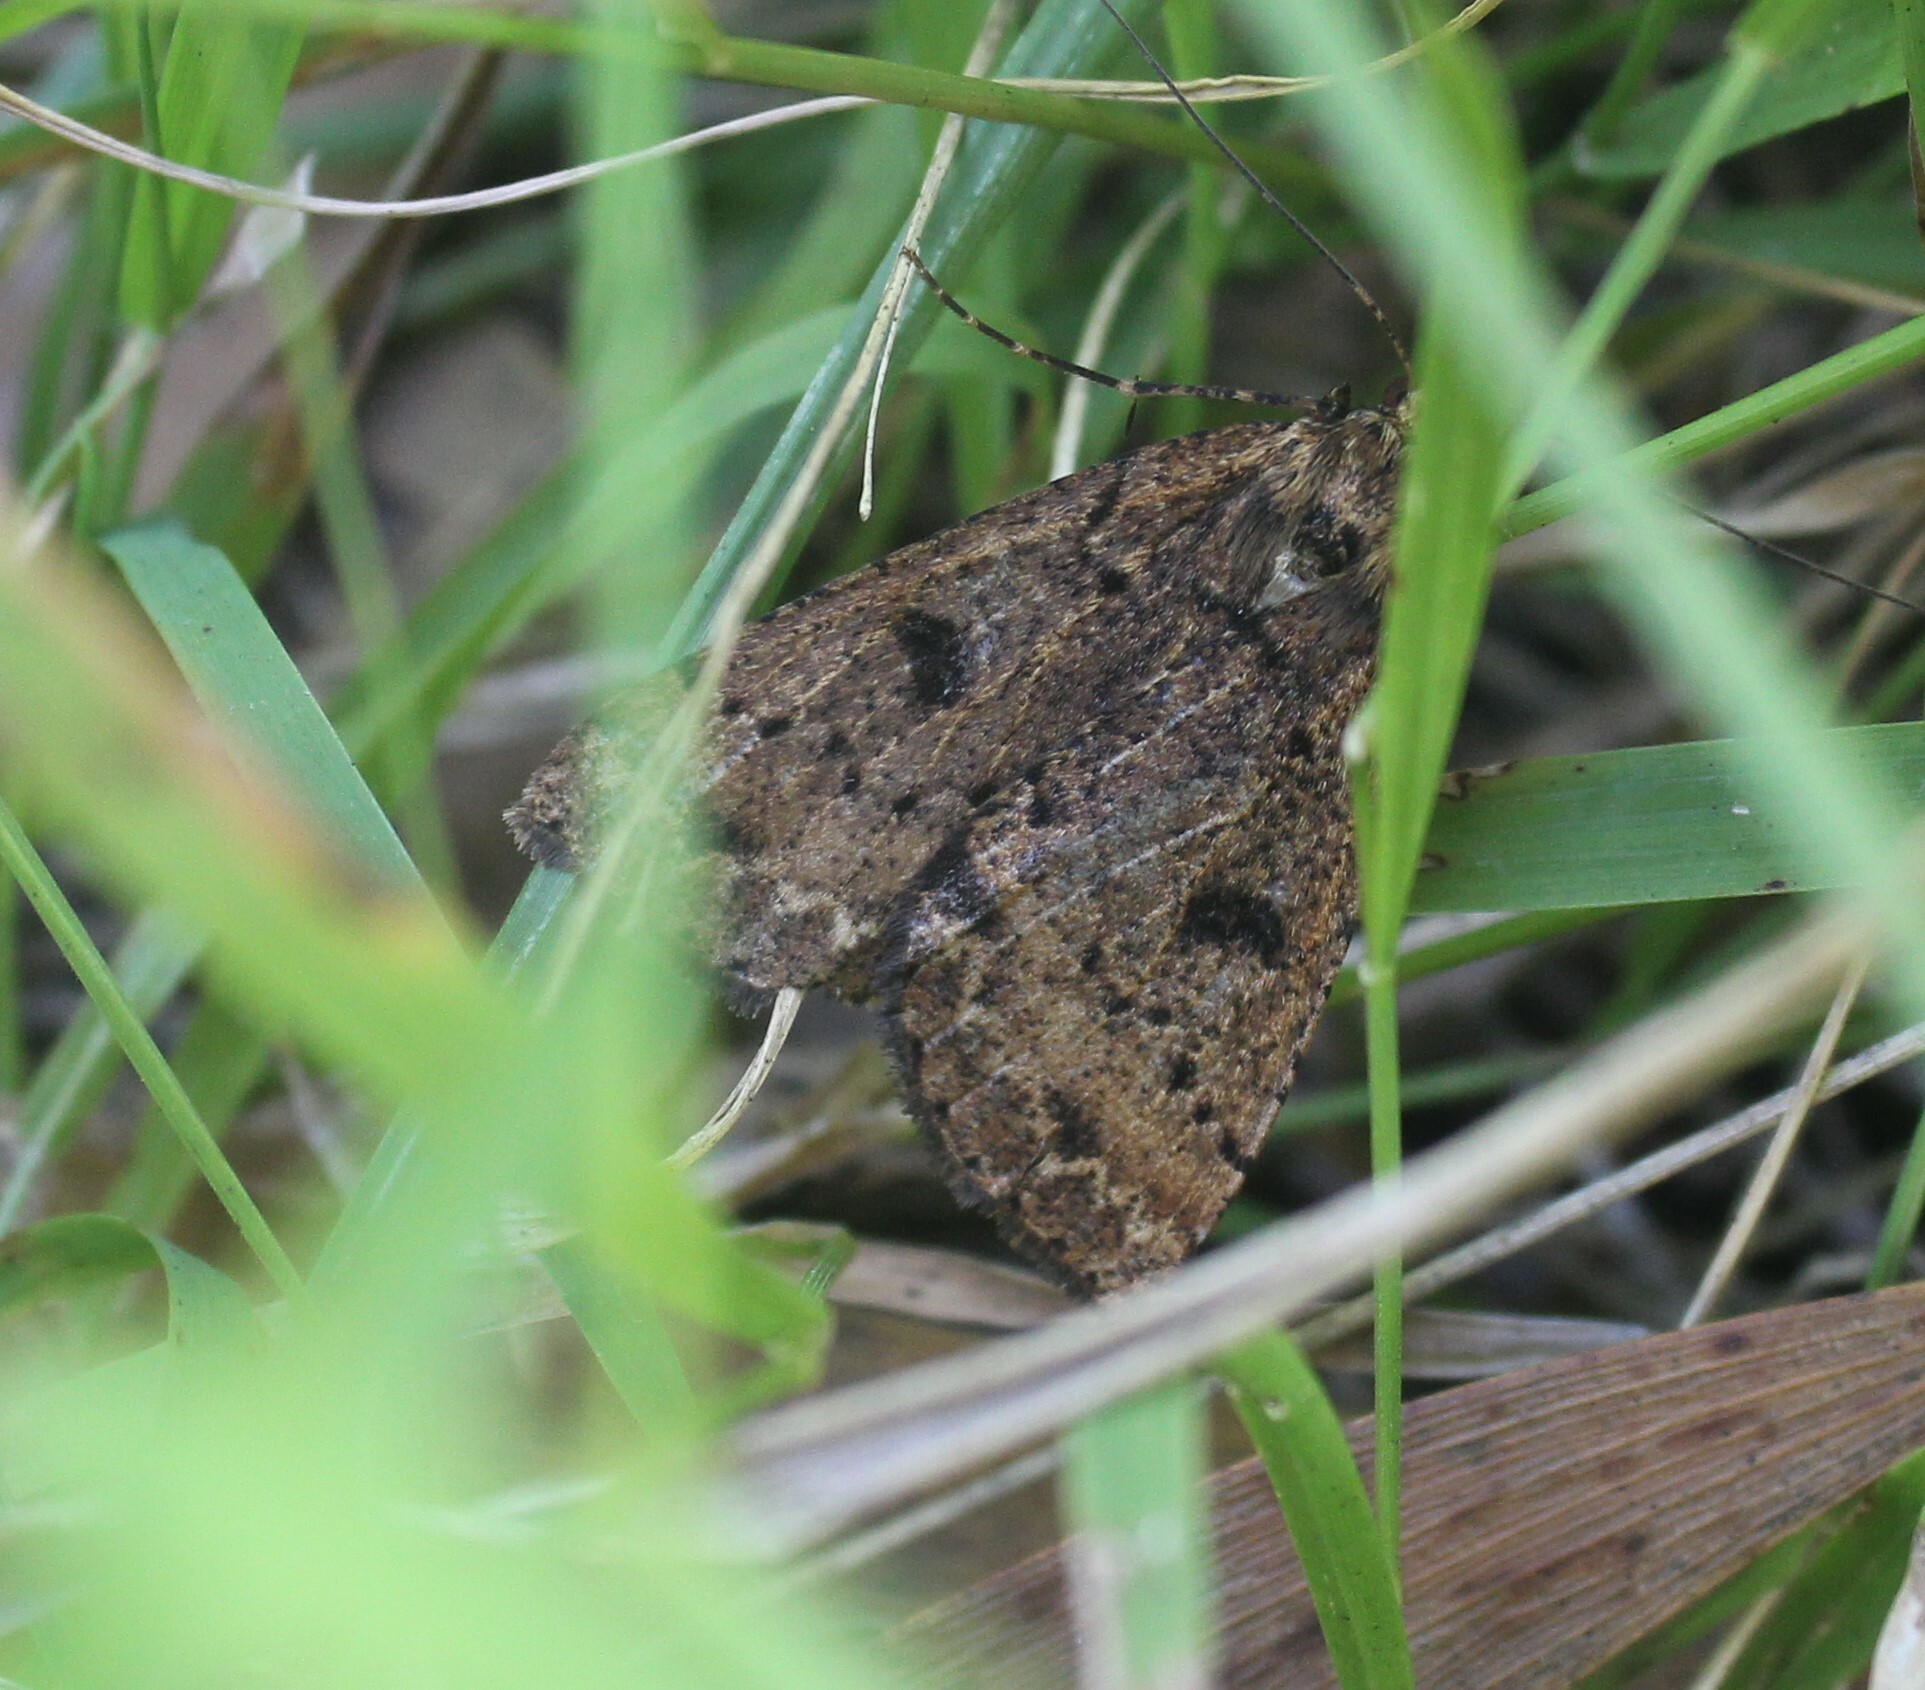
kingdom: Animalia
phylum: Arthropoda
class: Insecta
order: Lepidoptera
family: Geometridae
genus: Scotorythra
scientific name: Scotorythra paludicola
